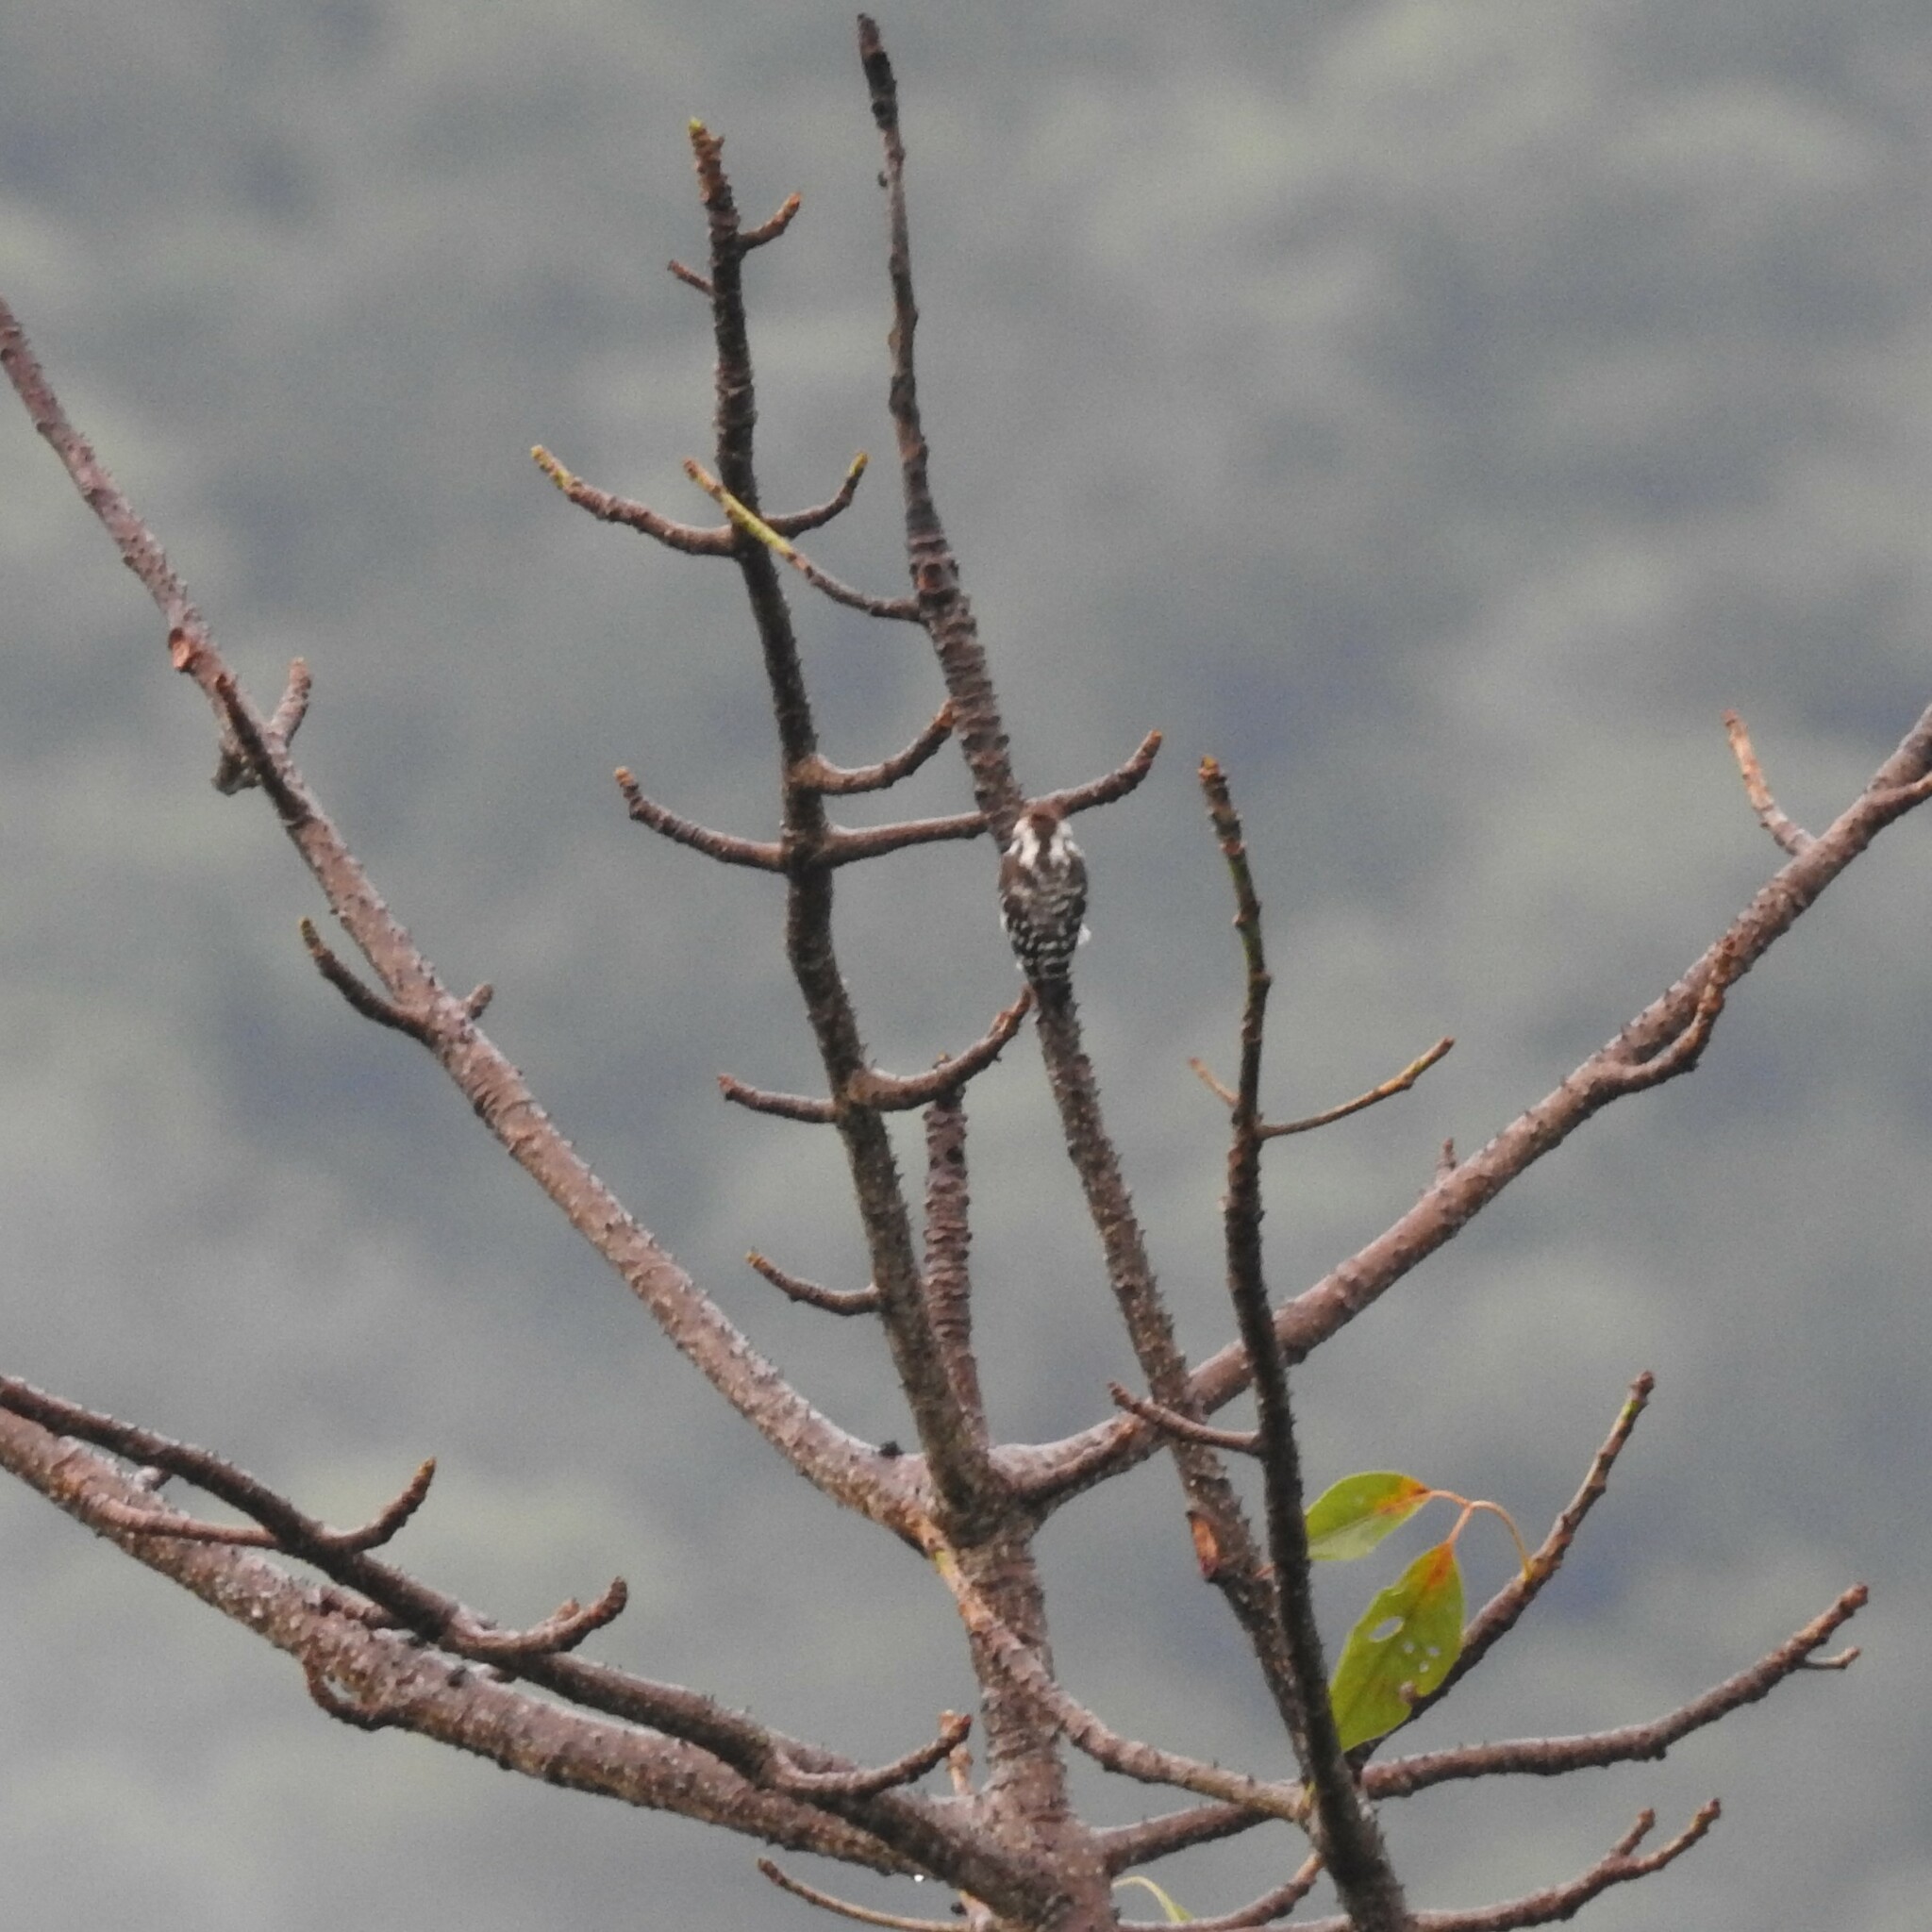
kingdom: Animalia
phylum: Chordata
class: Aves
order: Piciformes
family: Picidae
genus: Yungipicus
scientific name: Yungipicus nanus
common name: Brown-capped pygmy woodpecker
